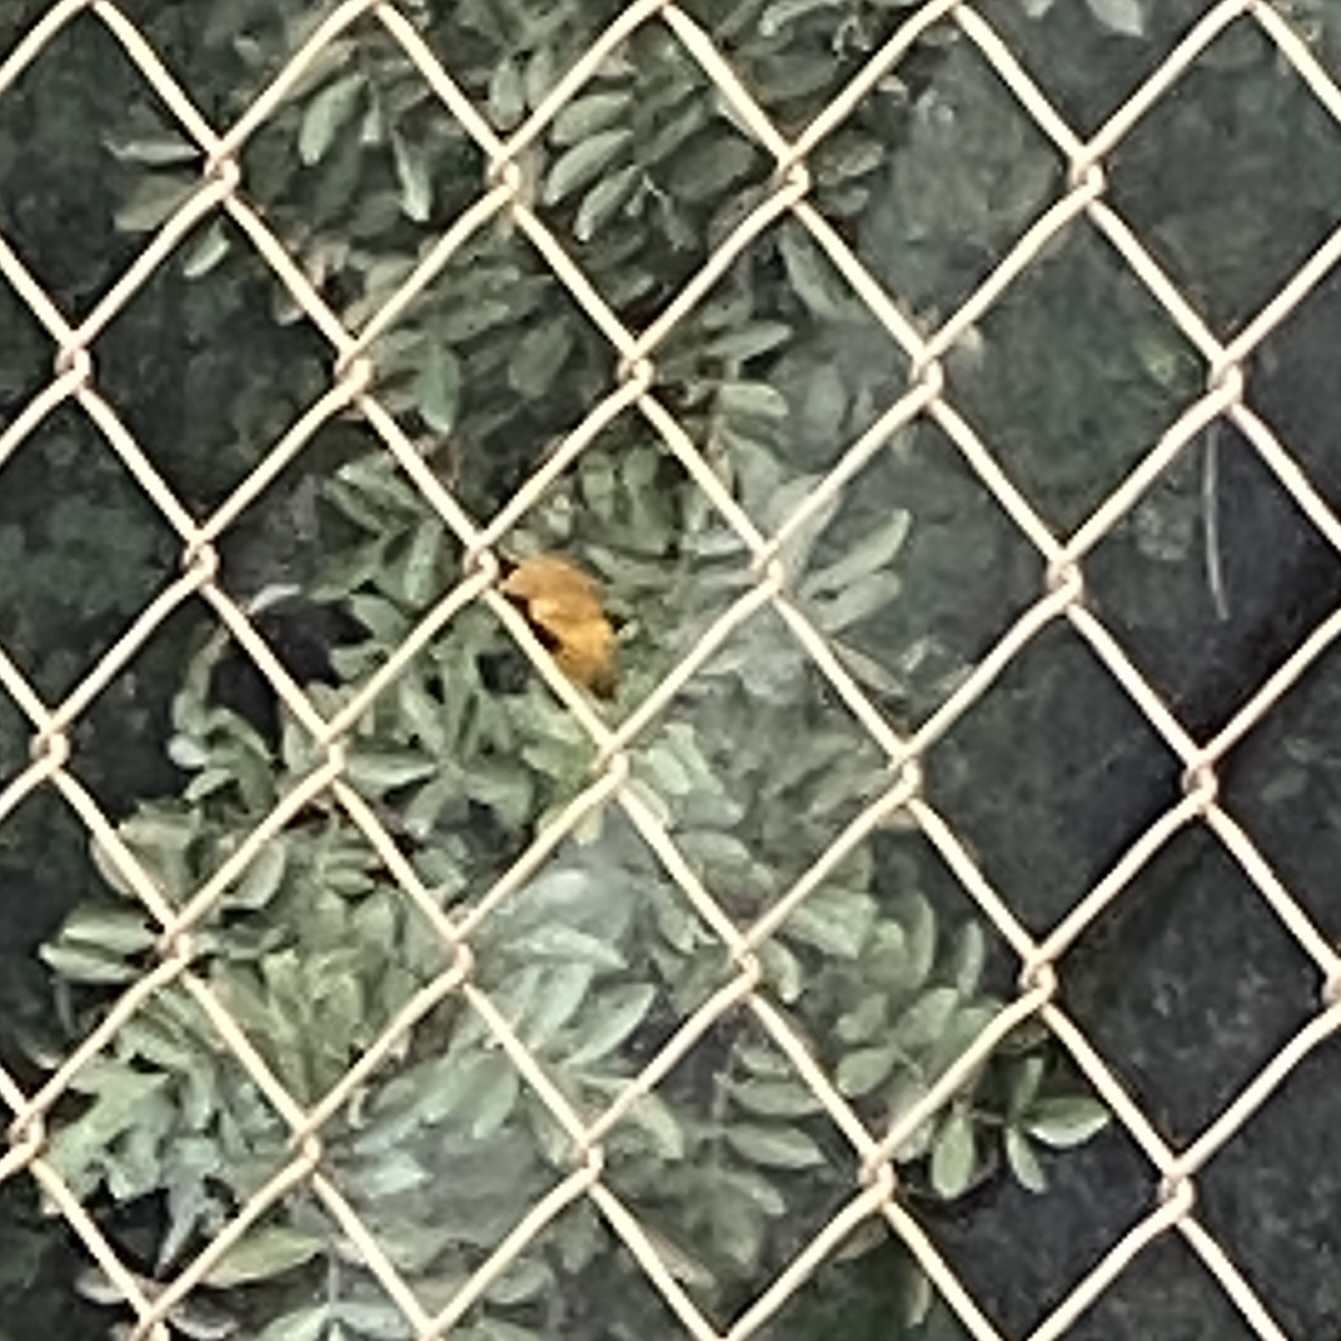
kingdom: Animalia
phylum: Chordata
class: Aves
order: Passeriformes
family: Icteridae
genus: Icterus
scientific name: Icterus cucullatus
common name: Hooded oriole
